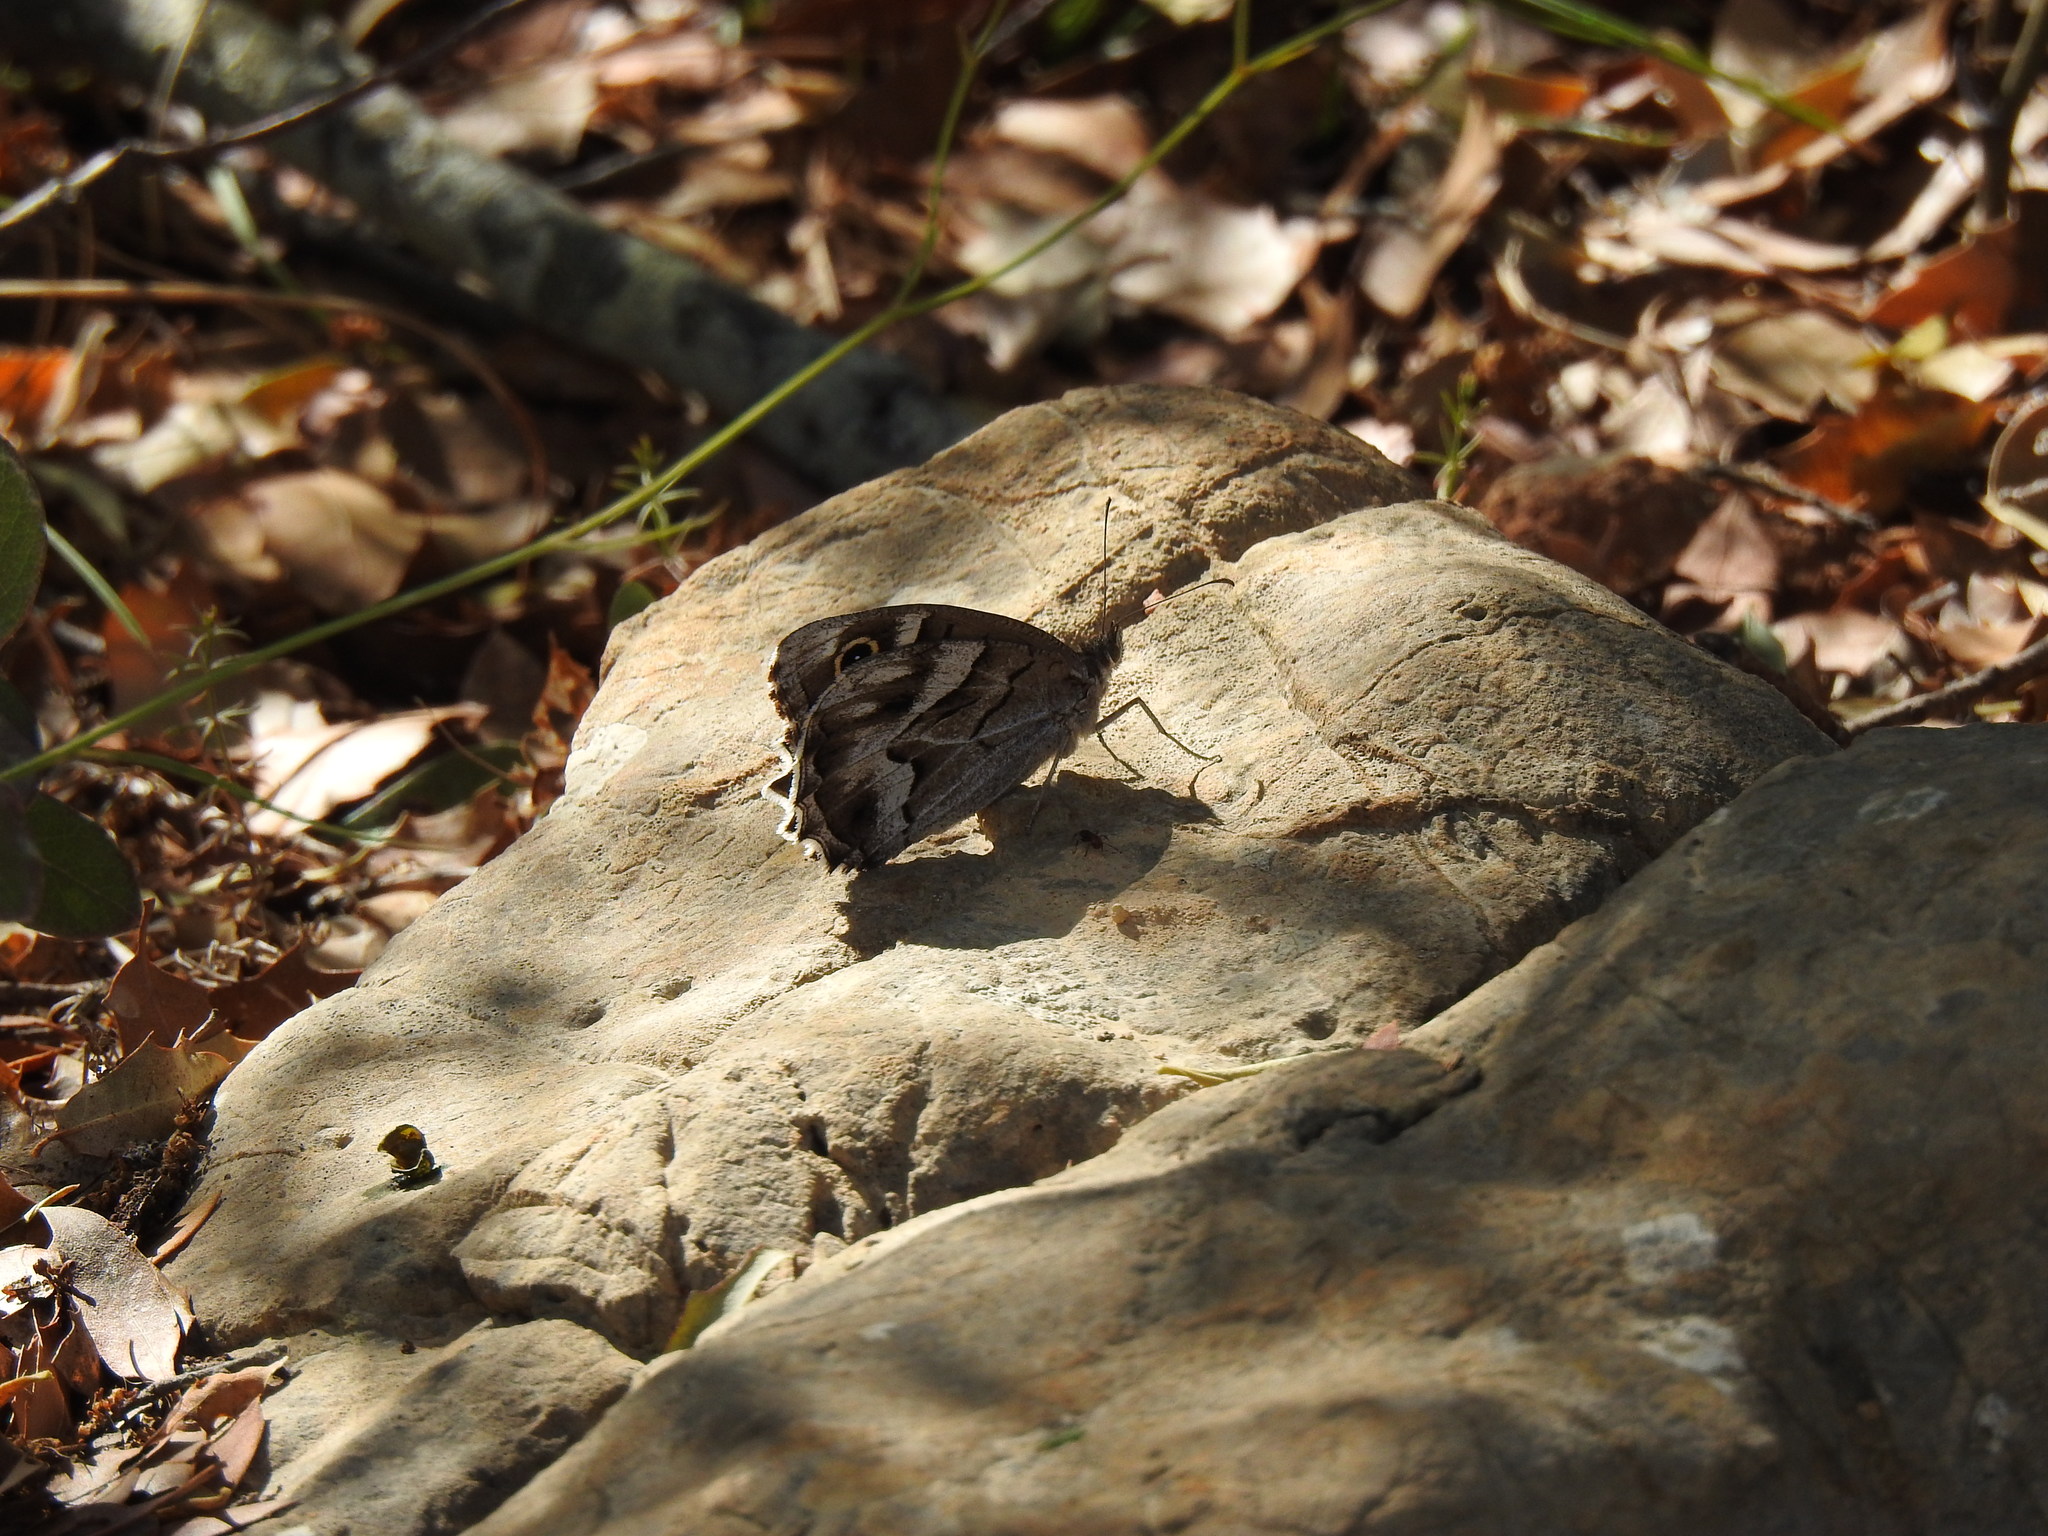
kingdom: Animalia
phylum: Arthropoda
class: Insecta
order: Lepidoptera
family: Nymphalidae
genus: Hipparchia
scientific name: Hipparchia fidia
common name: Striped grayling
